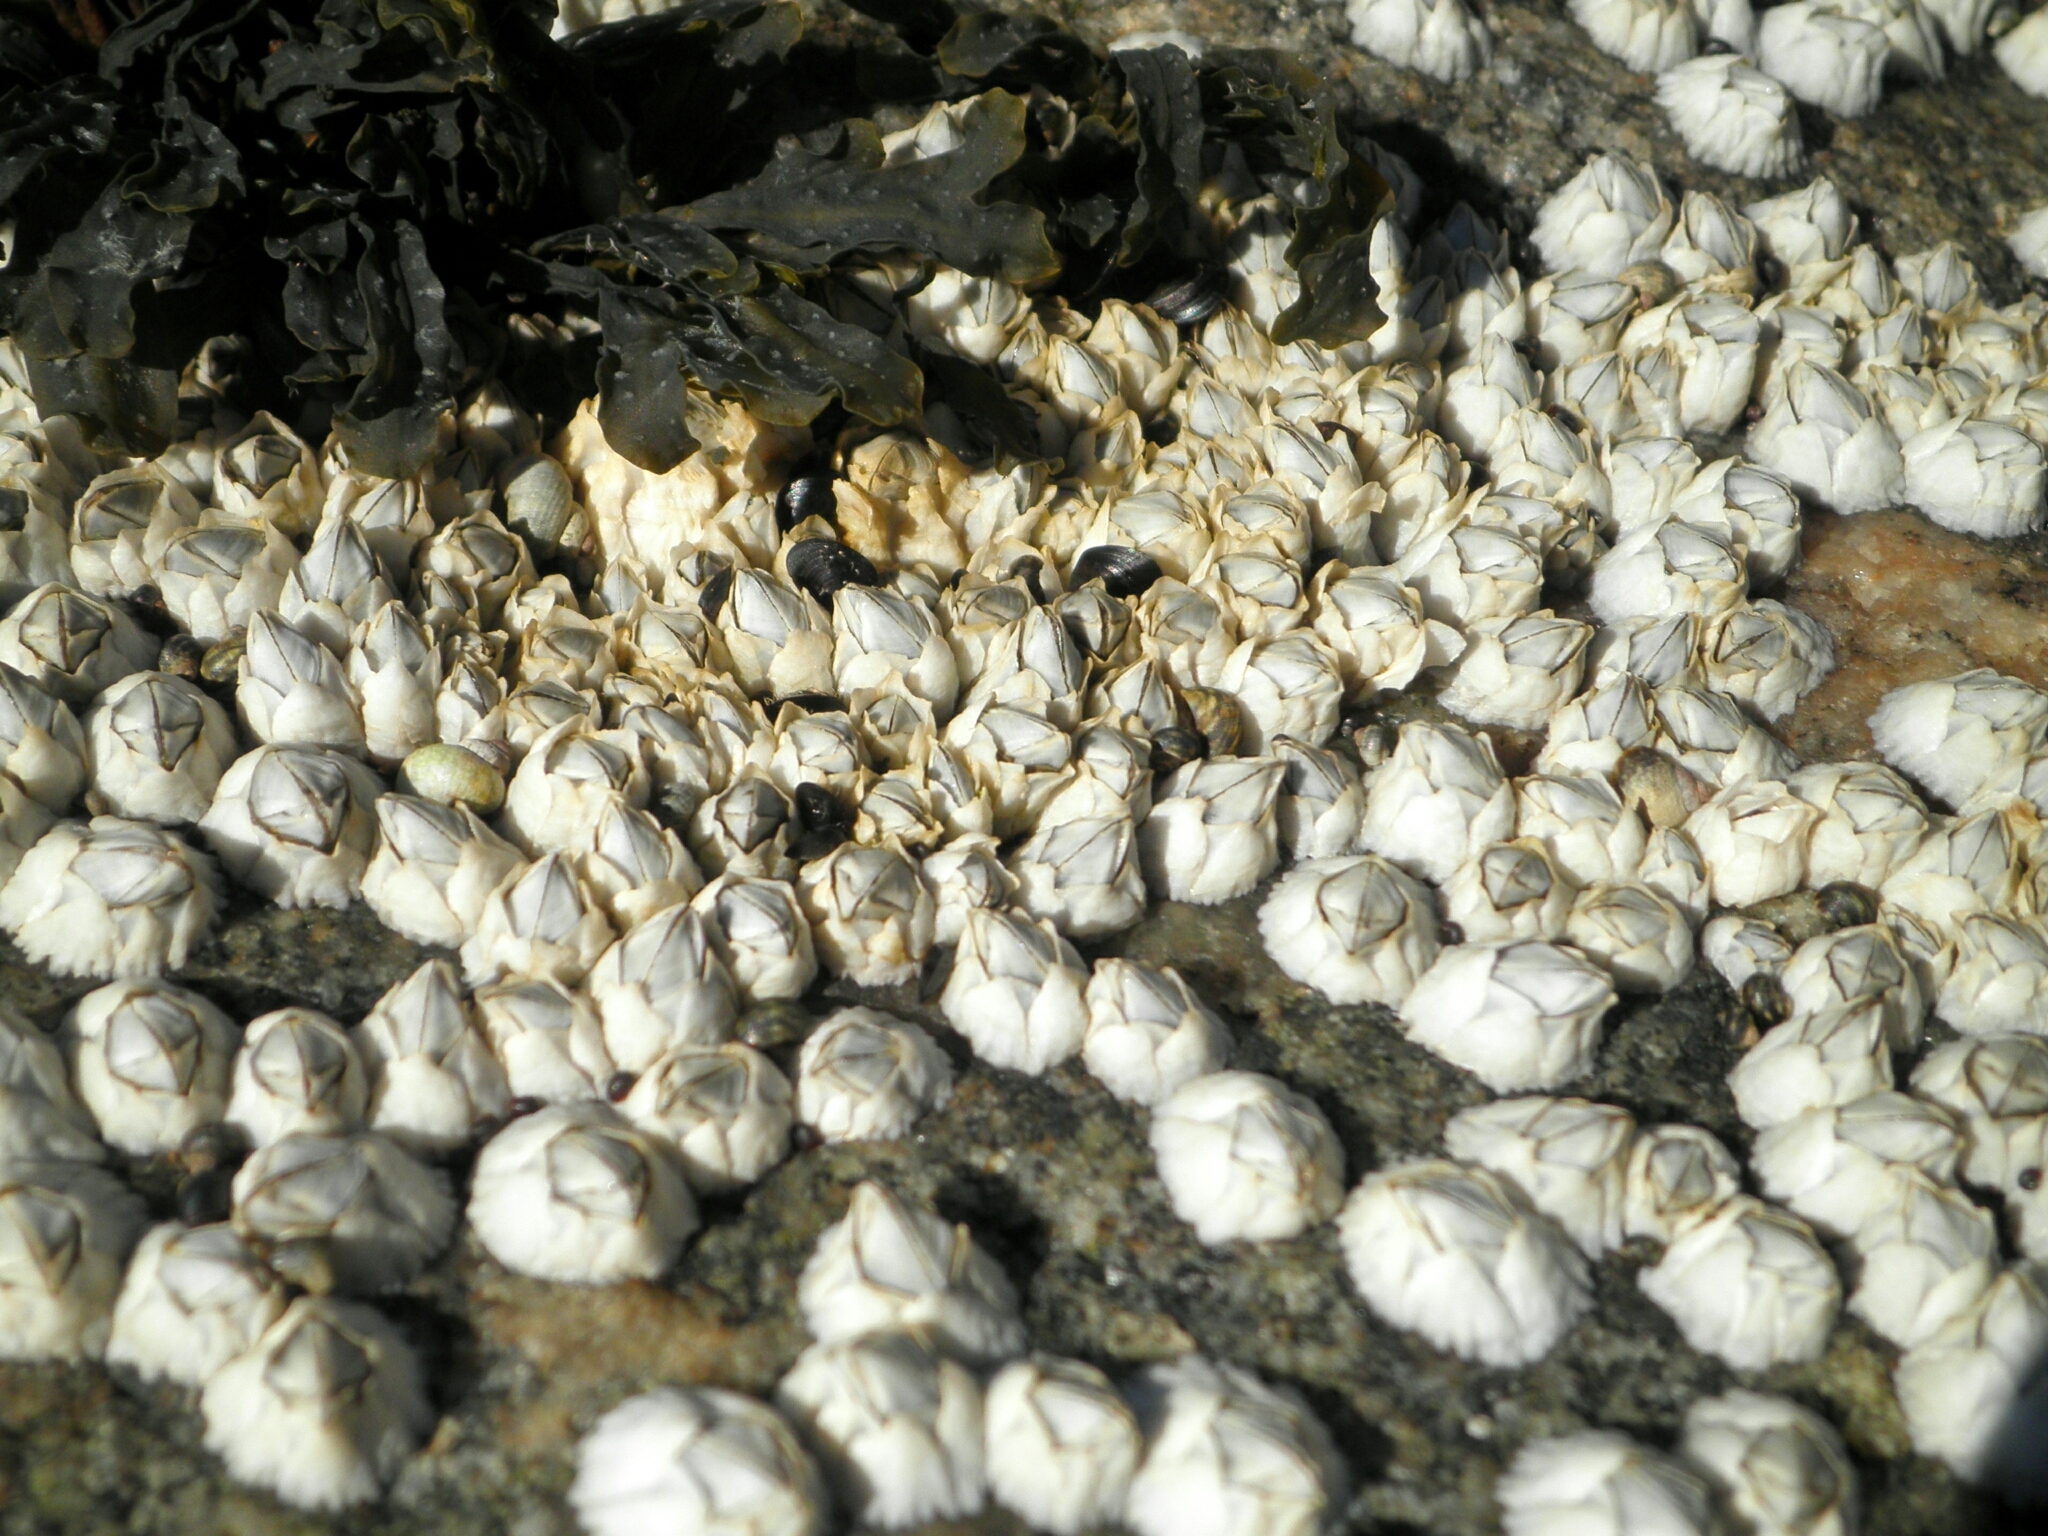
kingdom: Animalia
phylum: Arthropoda
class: Maxillopoda
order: Sessilia
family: Archaeobalanidae
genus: Semibalanus
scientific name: Semibalanus balanoides
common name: Acorn barnacle
